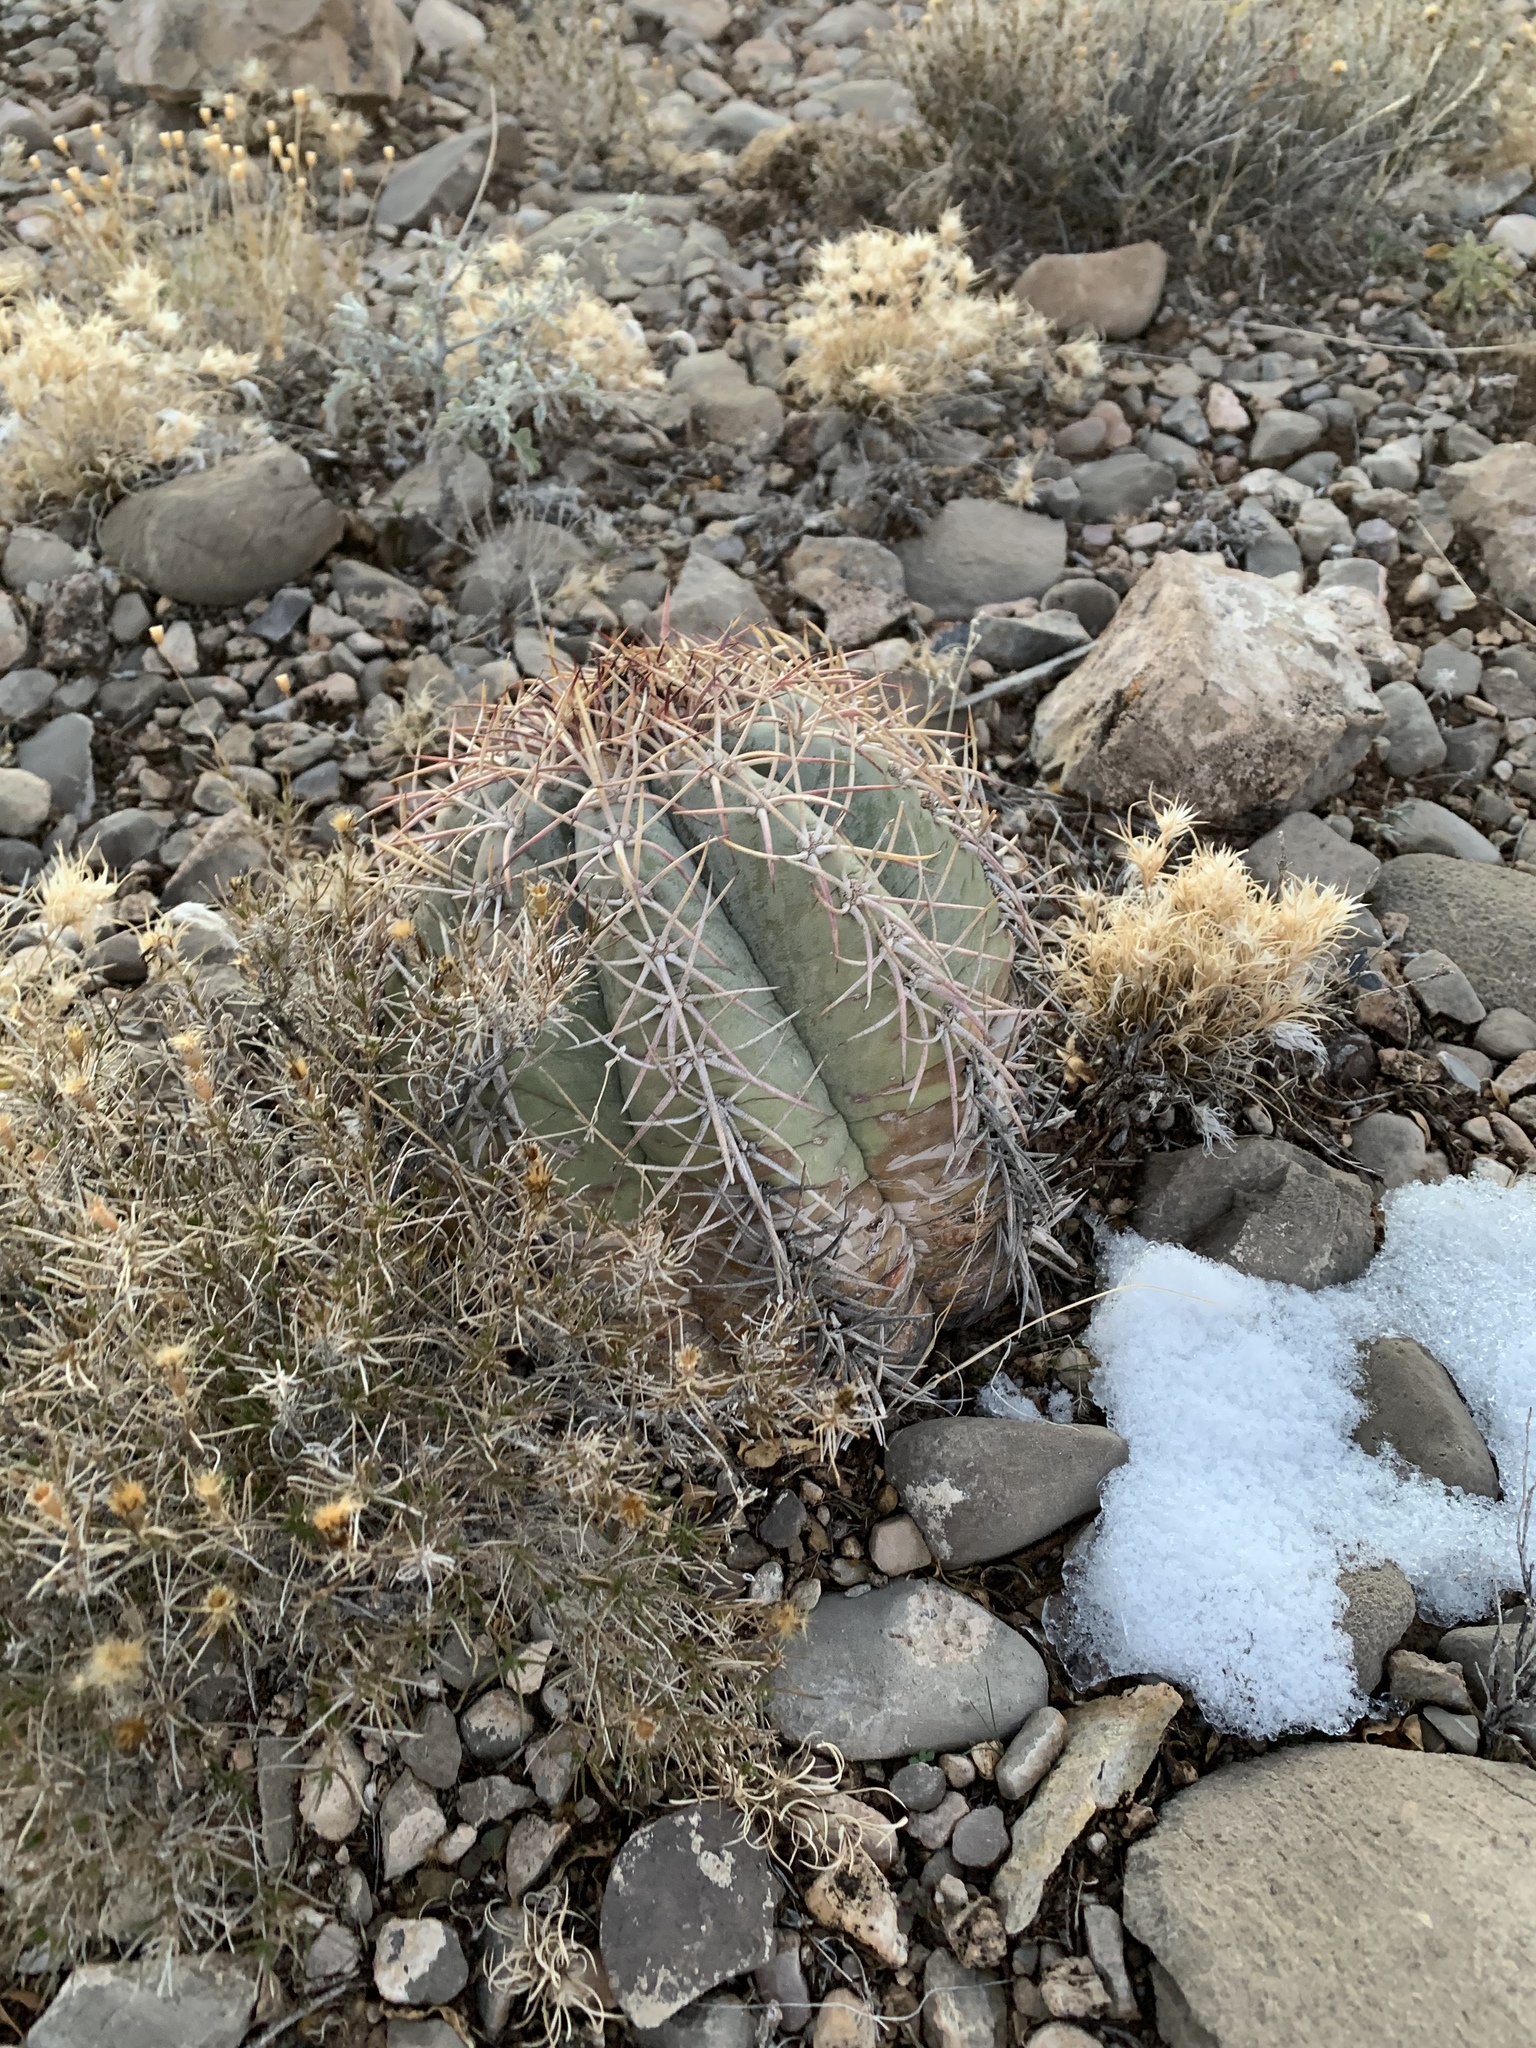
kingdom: Plantae
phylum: Tracheophyta
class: Magnoliopsida
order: Caryophyllales
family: Cactaceae
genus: Echinocactus
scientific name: Echinocactus horizonthalonius
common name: Devilshead
